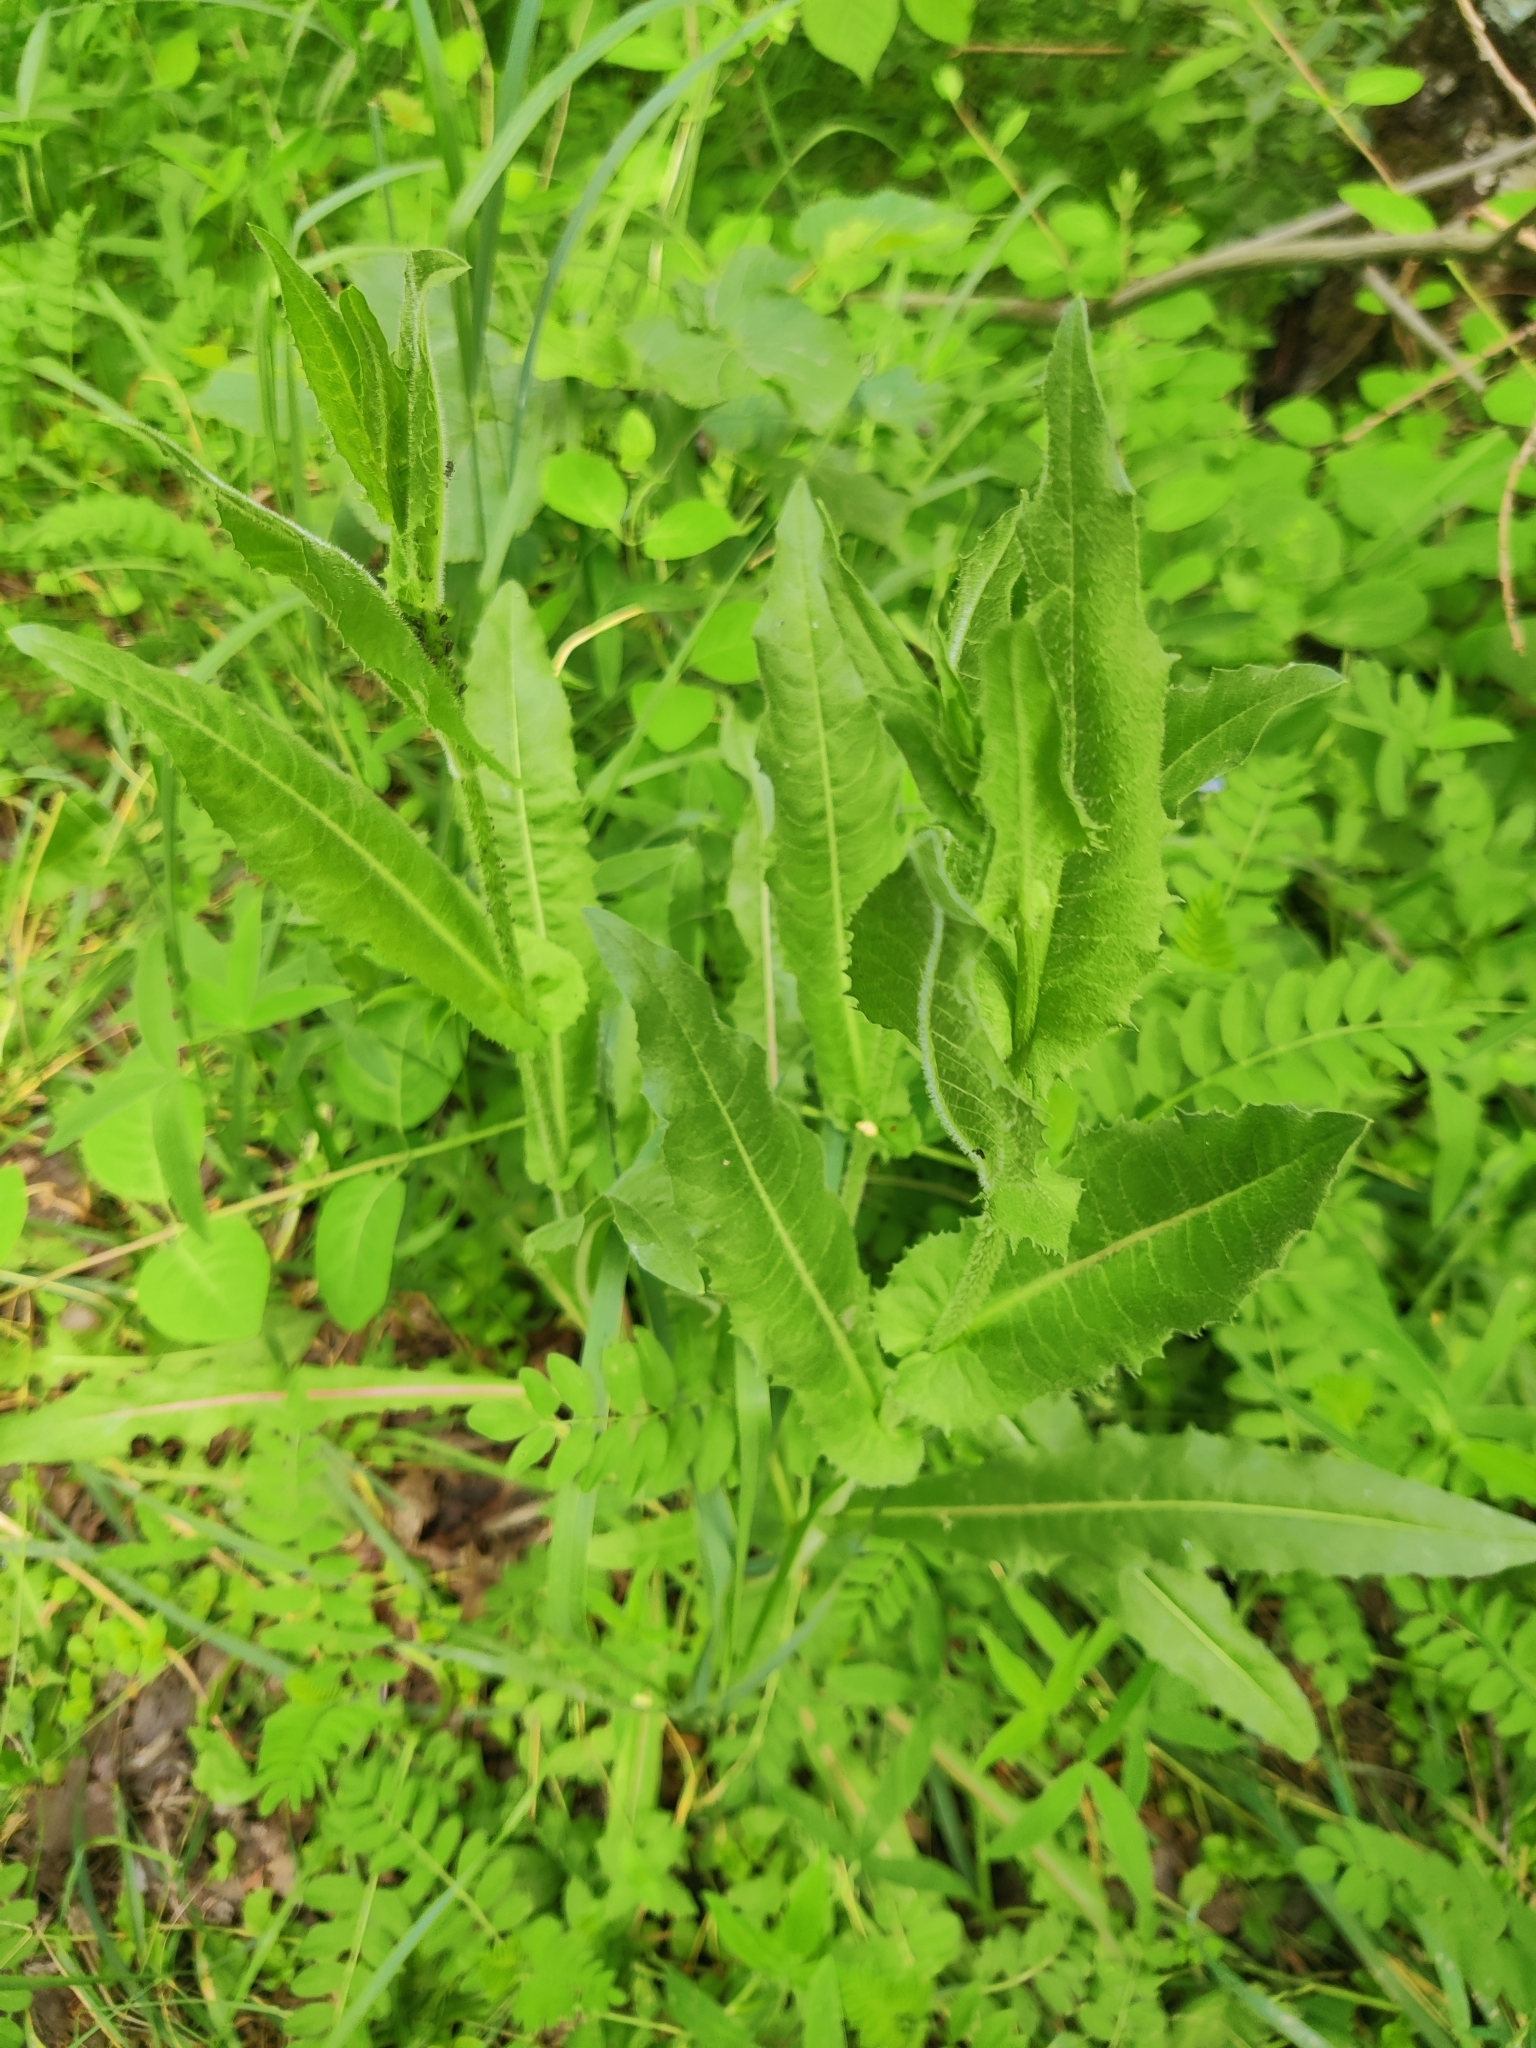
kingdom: Plantae
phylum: Tracheophyta
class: Magnoliopsida
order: Asterales
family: Asteraceae
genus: Cichorium
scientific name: Cichorium intybus
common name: Chicory
